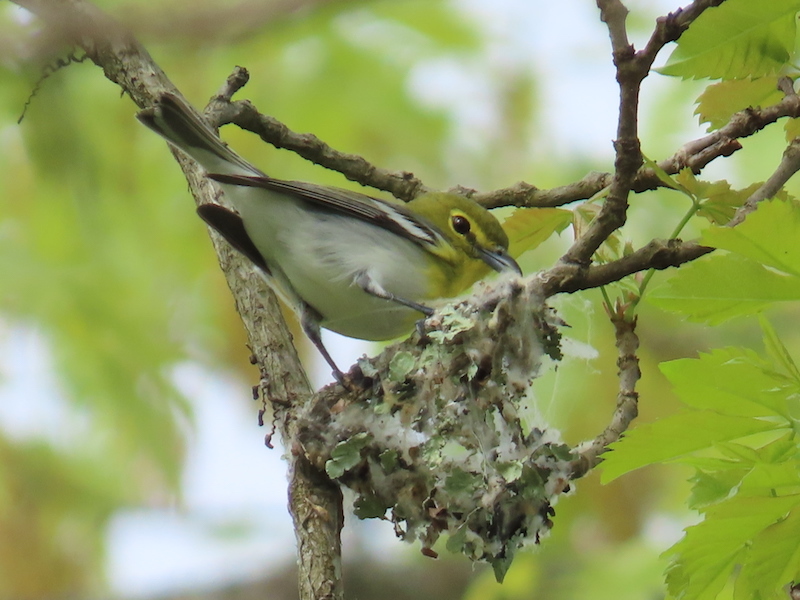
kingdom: Animalia
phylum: Chordata
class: Aves
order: Passeriformes
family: Vireonidae
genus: Vireo
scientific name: Vireo flavifrons
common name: Yellow-throated vireo
